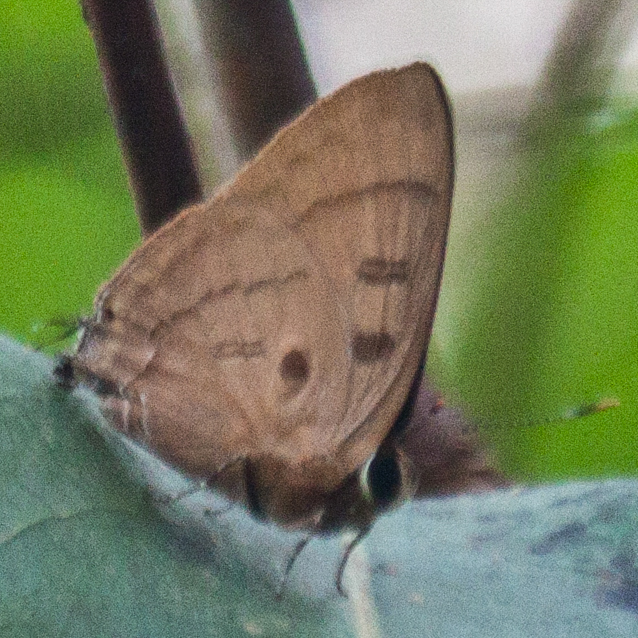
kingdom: Animalia
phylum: Arthropoda
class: Insecta
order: Lepidoptera
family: Lycaenidae
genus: Rapala
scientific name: Rapala pheretima
